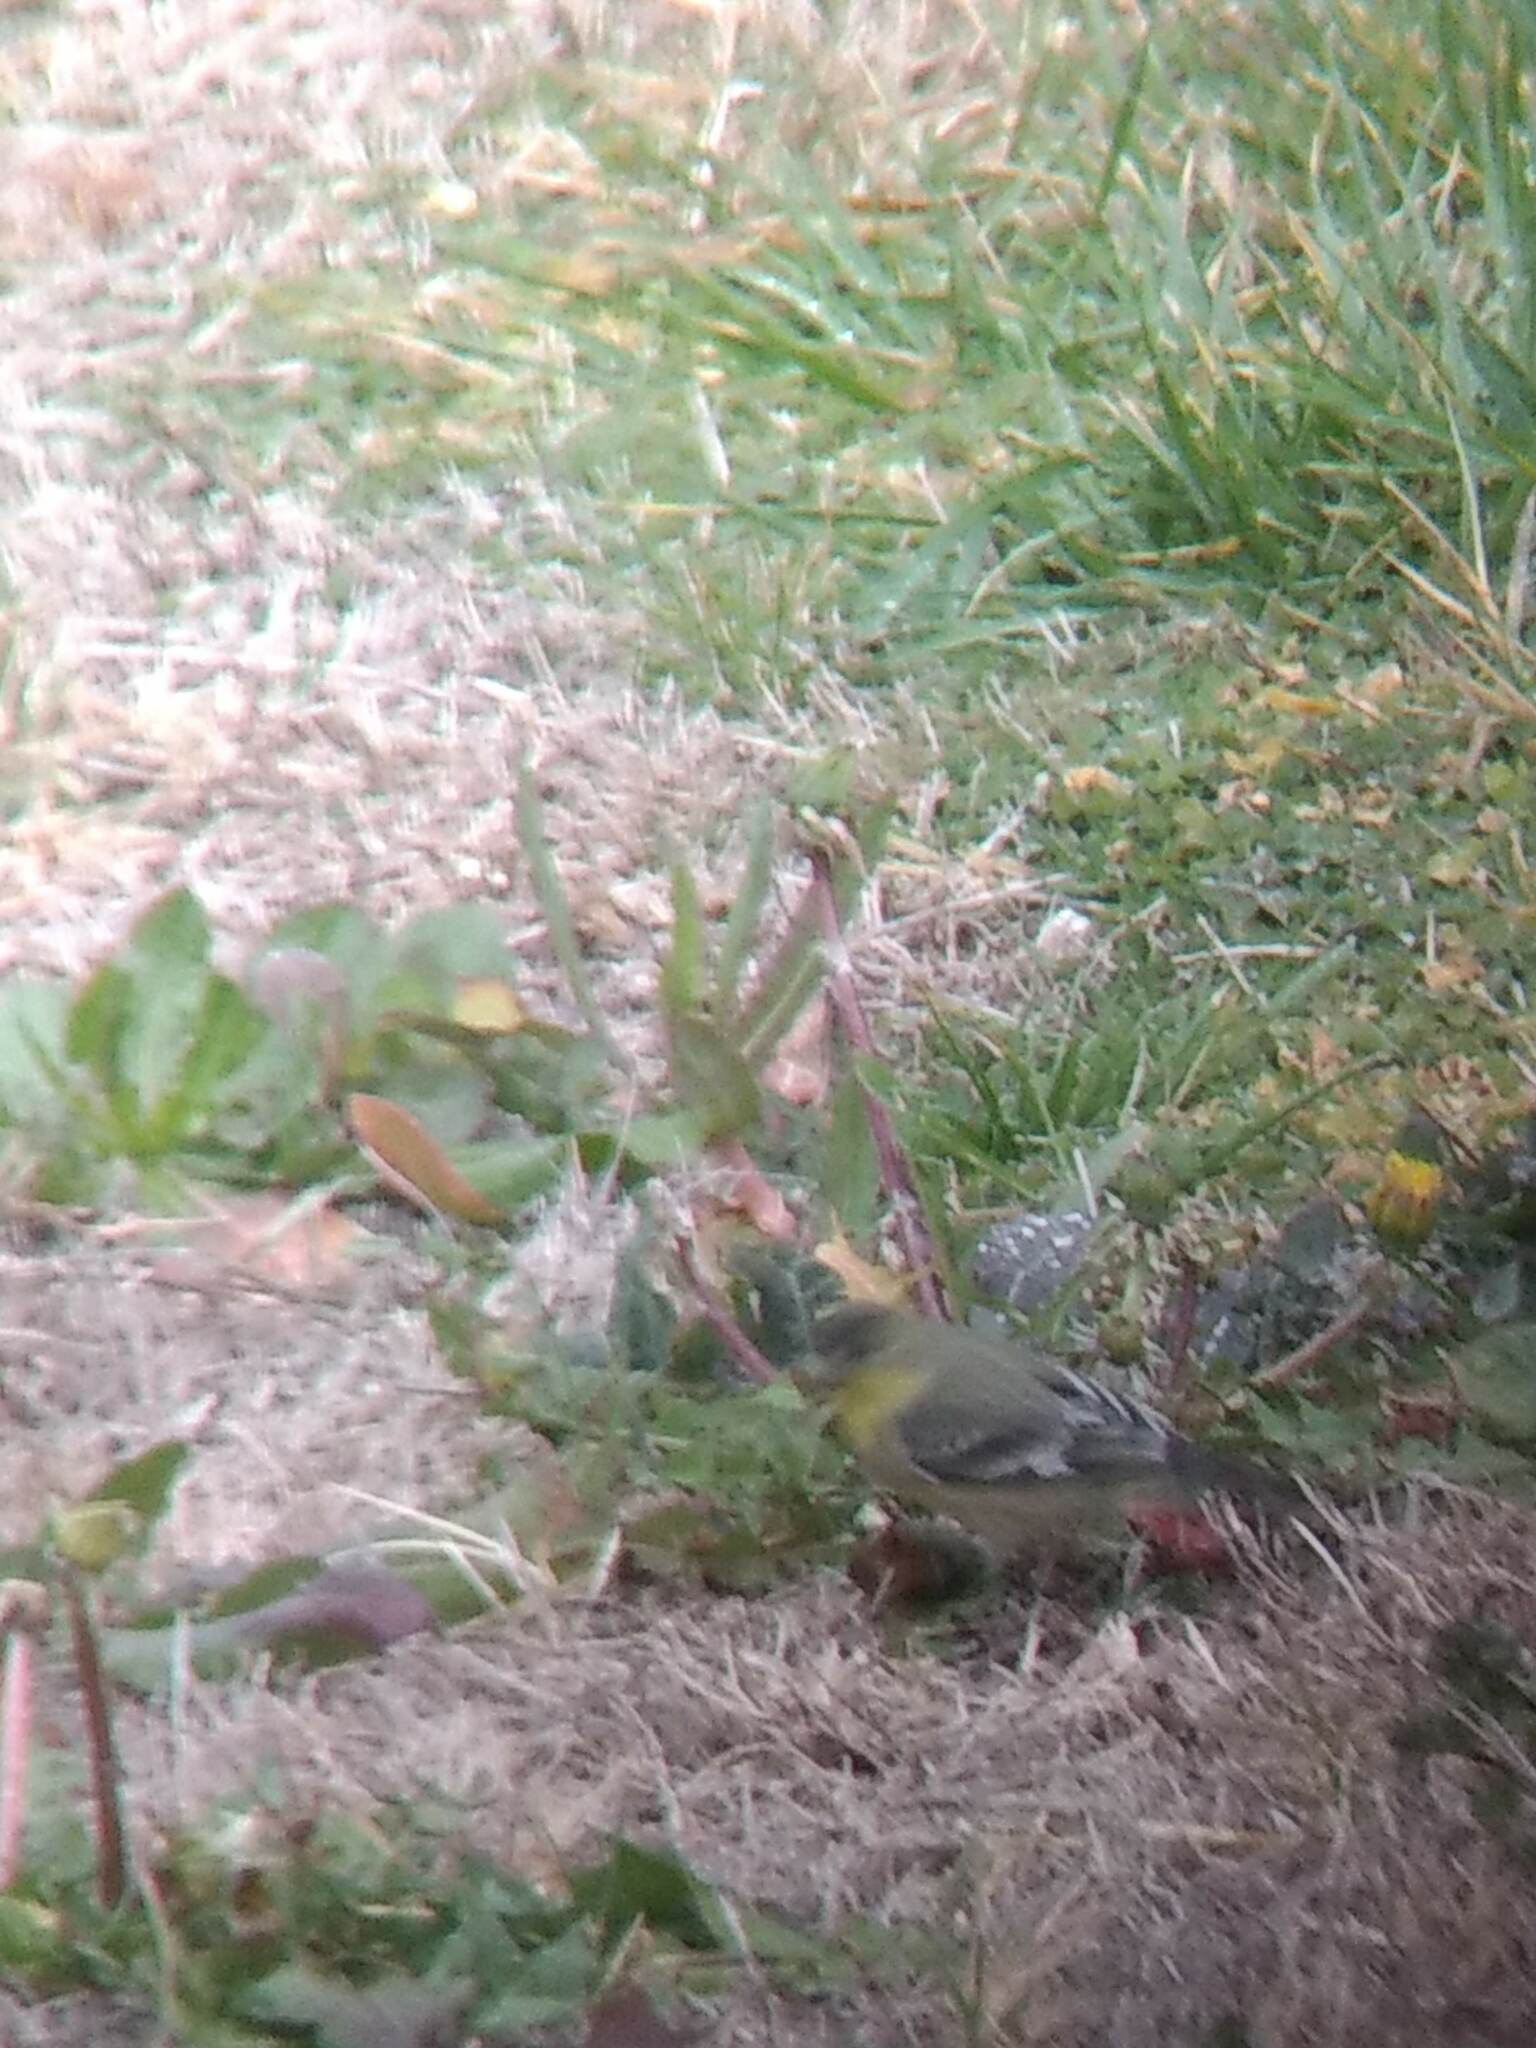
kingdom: Animalia
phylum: Chordata
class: Aves
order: Passeriformes
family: Fringillidae
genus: Spinus
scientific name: Spinus psaltria
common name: Lesser goldfinch
